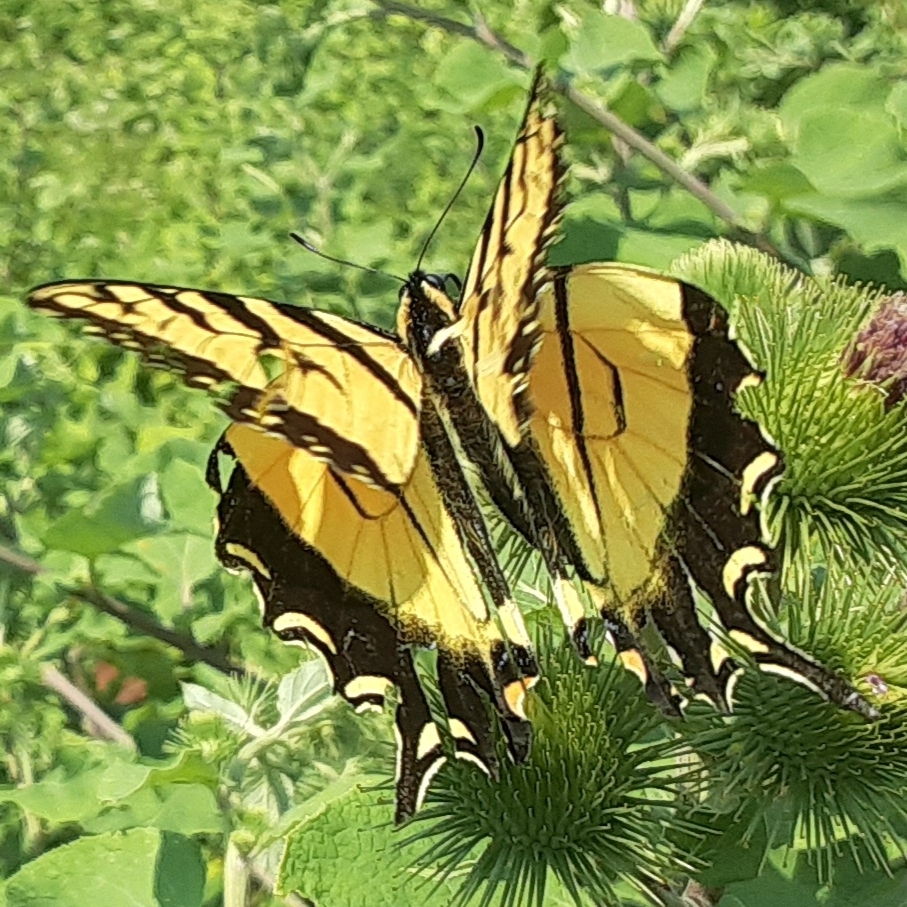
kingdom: Animalia
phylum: Arthropoda
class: Insecta
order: Lepidoptera
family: Papilionidae
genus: Papilio
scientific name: Papilio glaucus
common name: Tiger swallowtail
